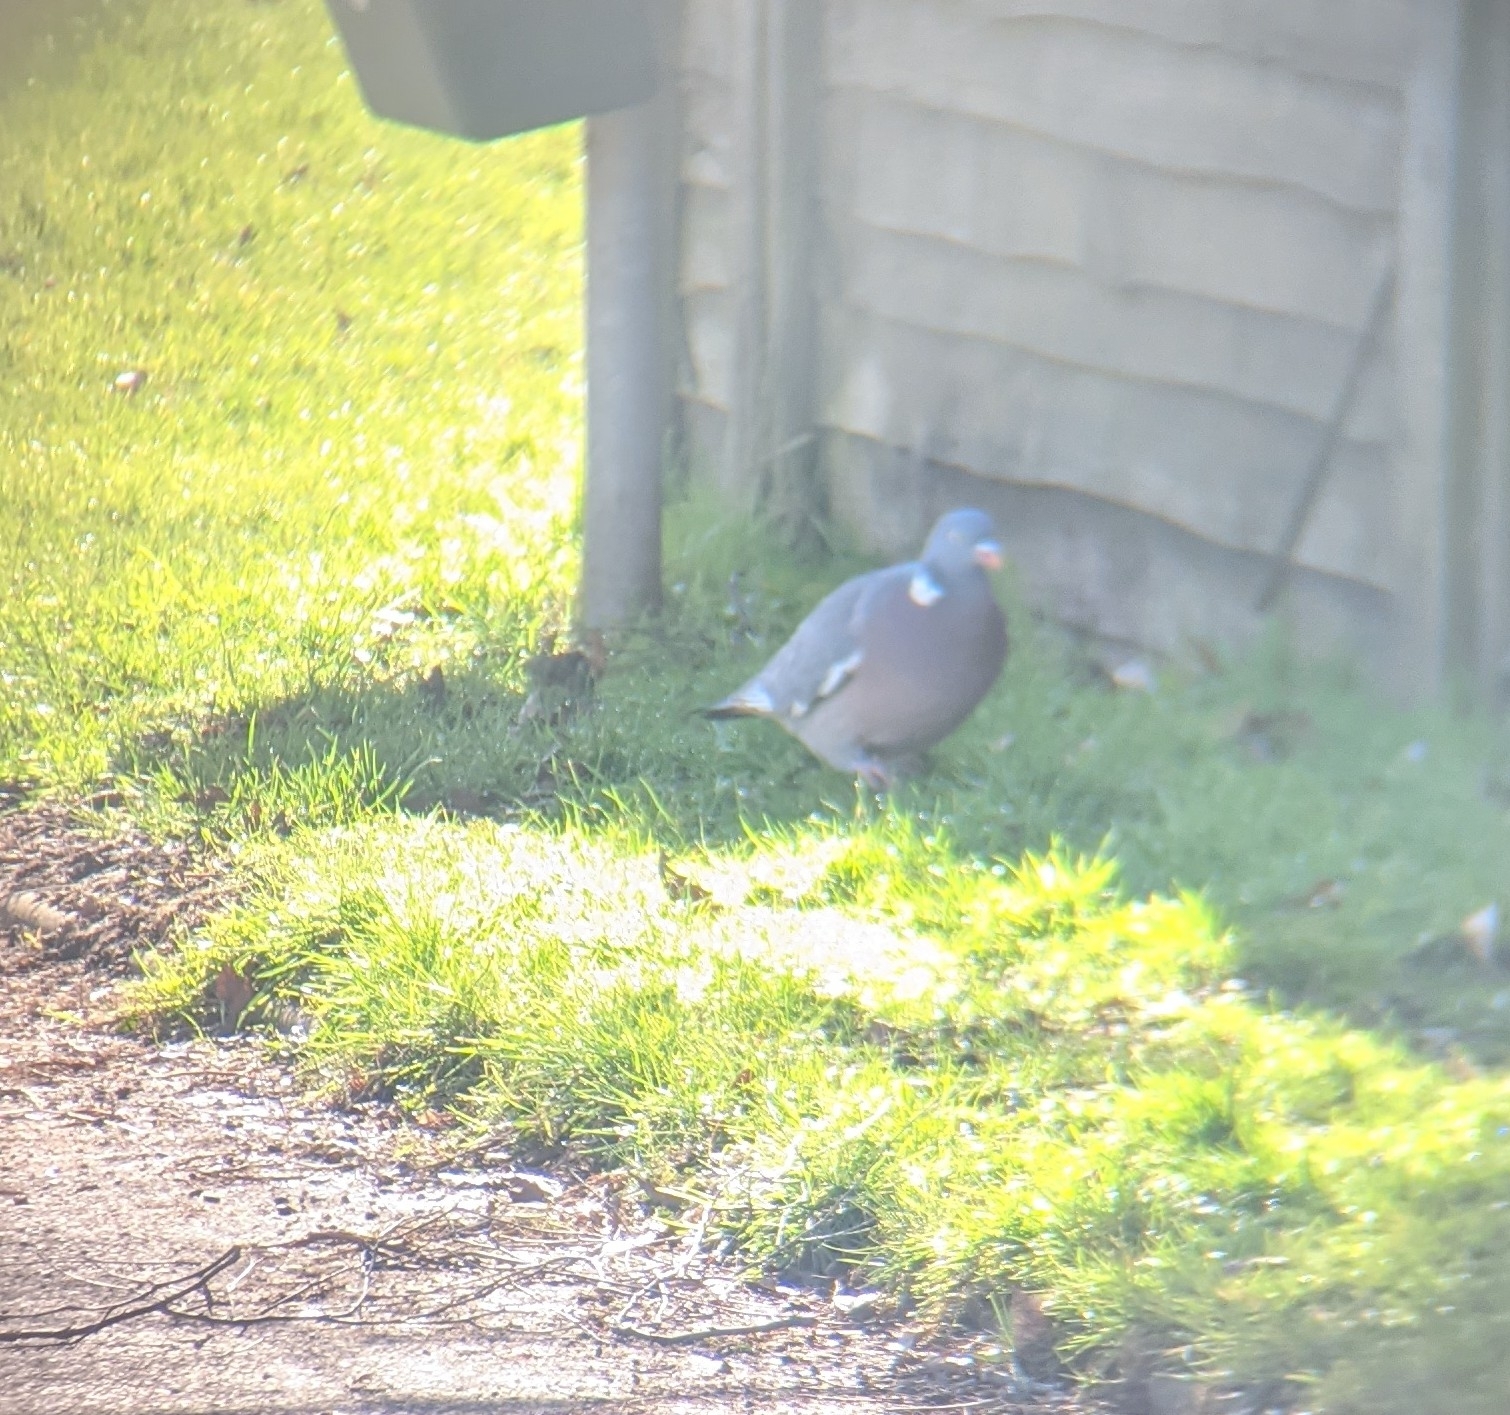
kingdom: Animalia
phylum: Chordata
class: Aves
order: Columbiformes
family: Columbidae
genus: Columba
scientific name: Columba palumbus
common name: Common wood pigeon
